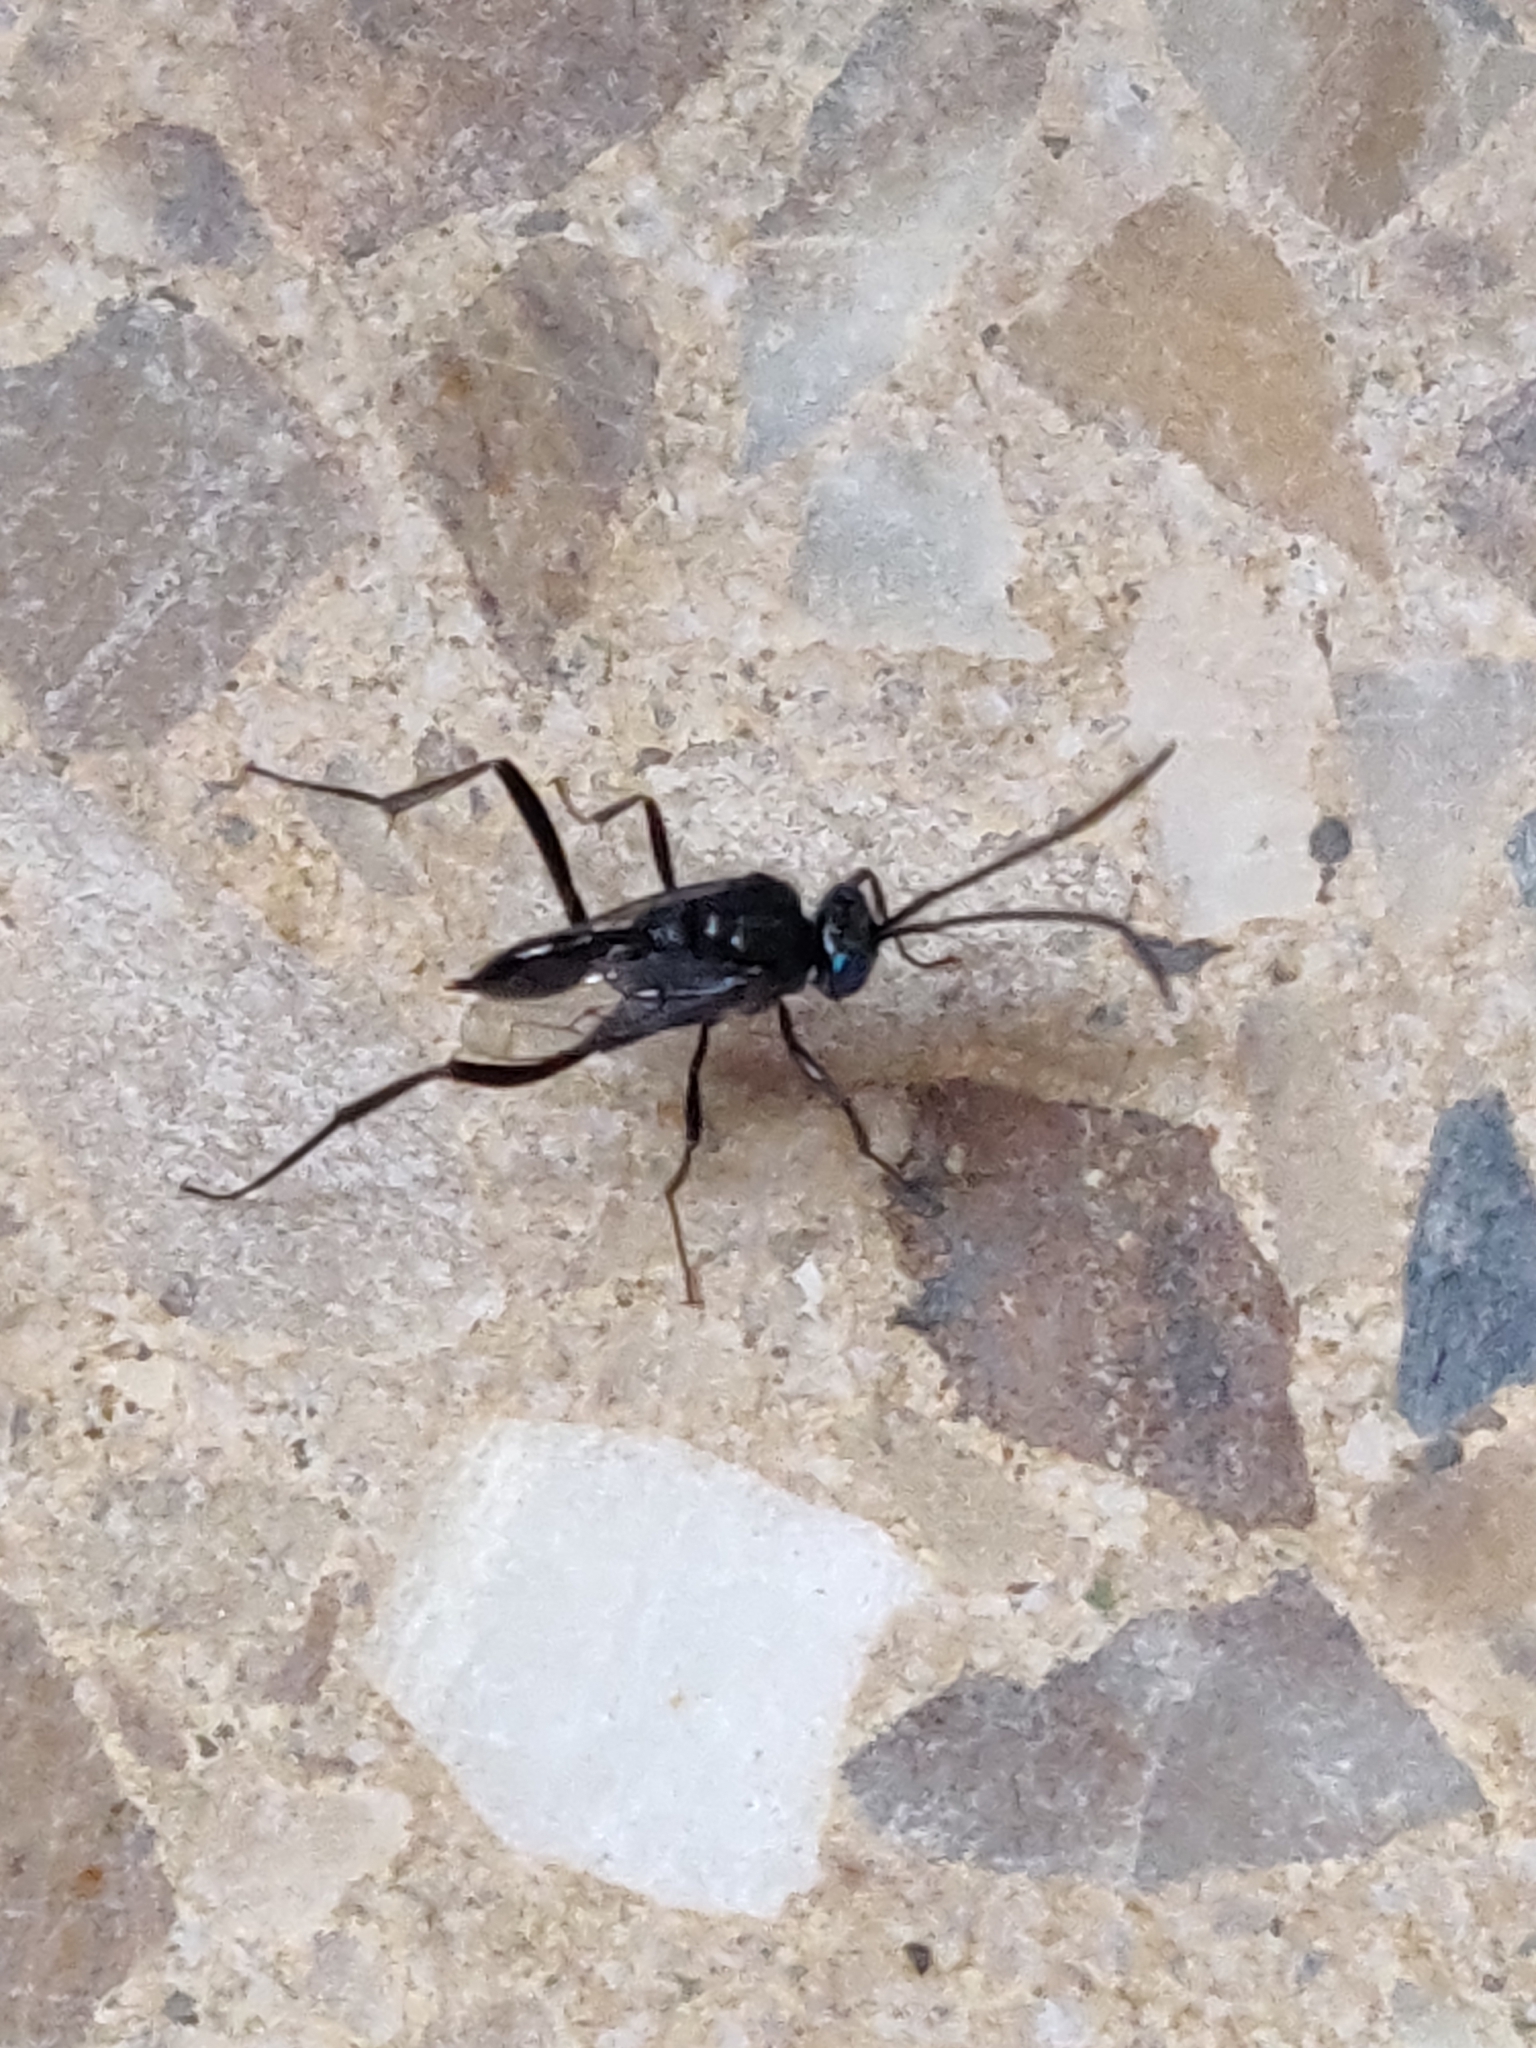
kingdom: Animalia
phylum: Arthropoda
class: Insecta
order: Hymenoptera
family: Evaniidae
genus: Evania
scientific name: Evania appendigaster
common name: Ensign wasp
